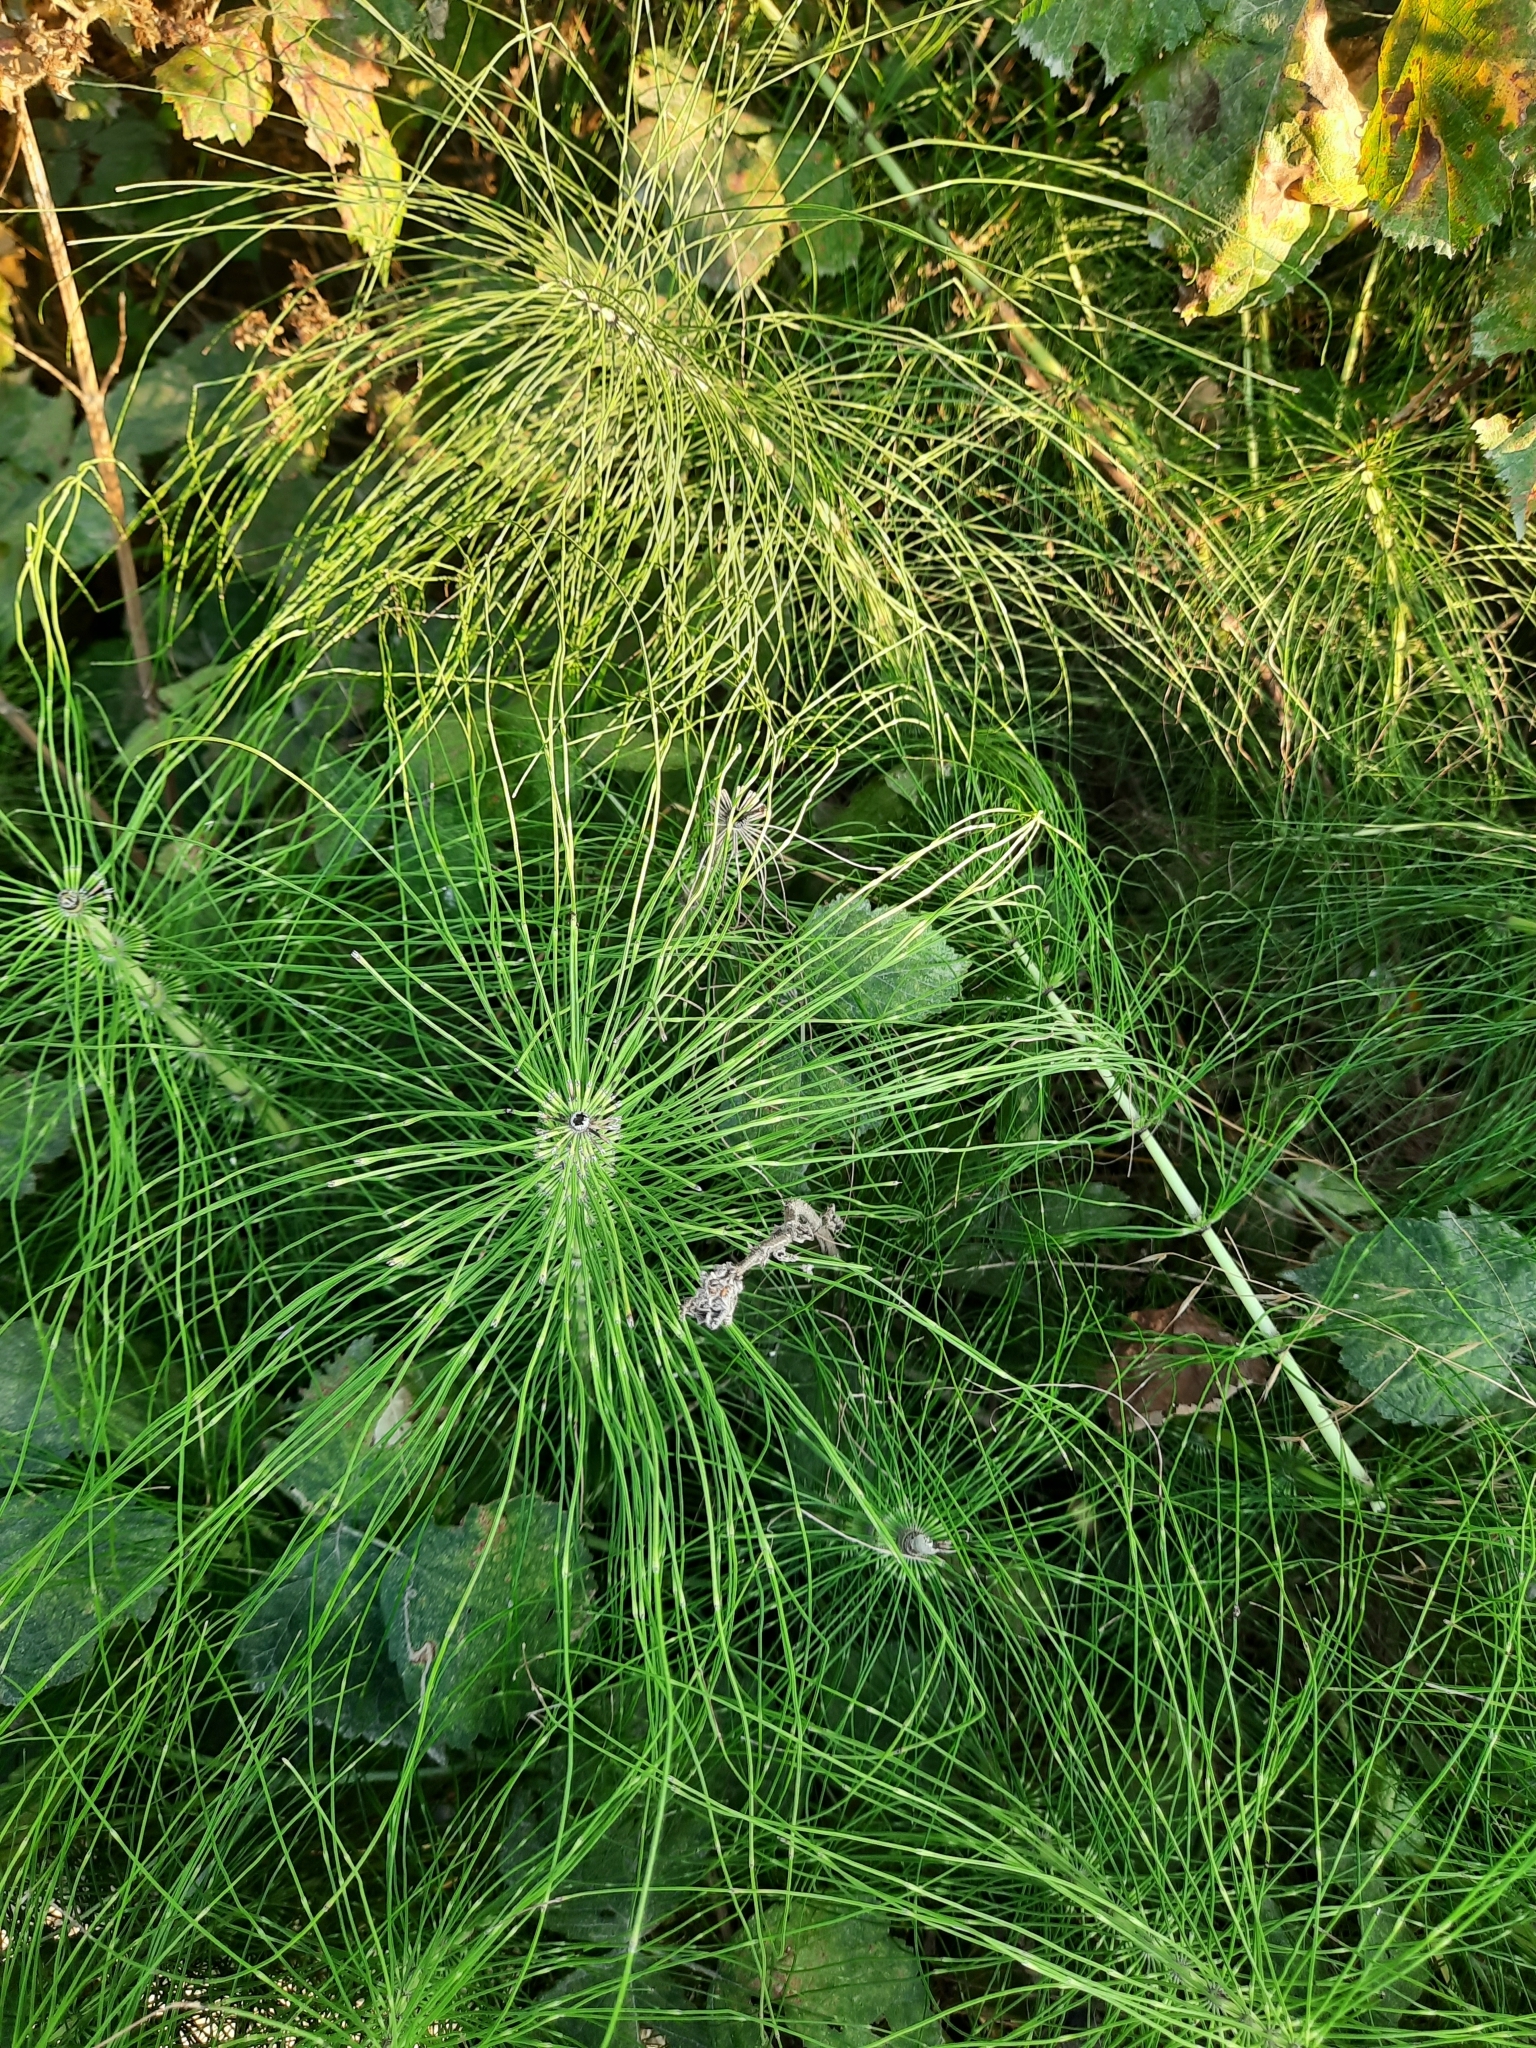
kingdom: Plantae
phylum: Tracheophyta
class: Polypodiopsida
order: Equisetales
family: Equisetaceae
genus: Equisetum
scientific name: Equisetum telmateia
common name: Great horsetail
